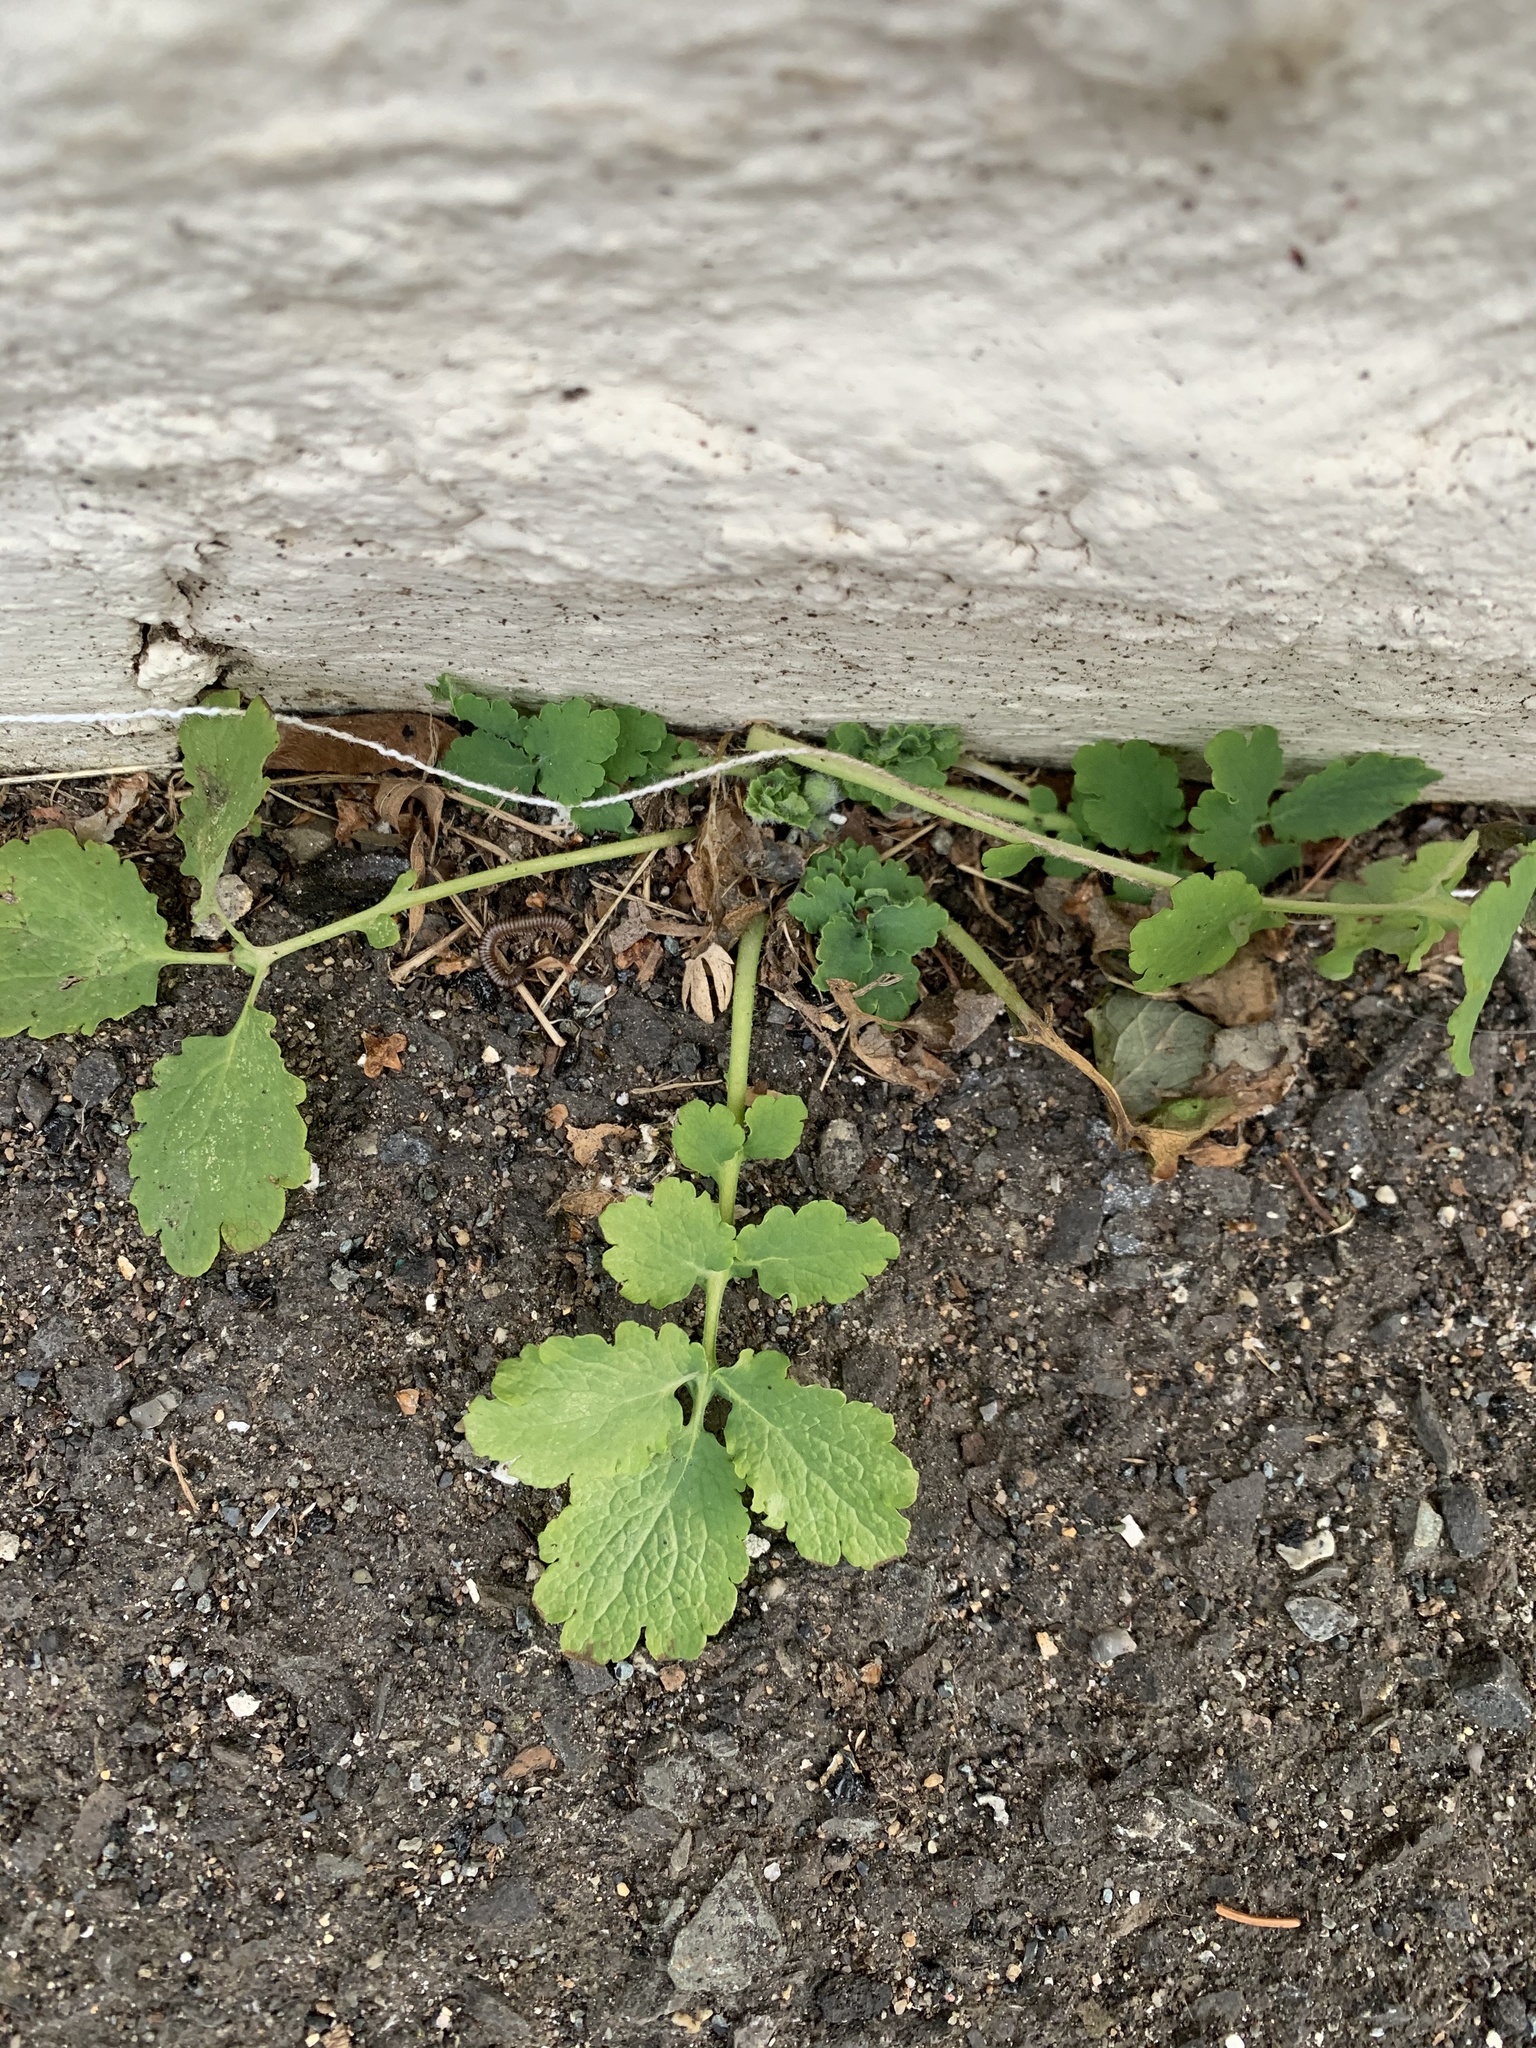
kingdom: Plantae
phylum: Tracheophyta
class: Magnoliopsida
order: Ranunculales
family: Papaveraceae
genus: Chelidonium
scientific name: Chelidonium majus
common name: Greater celandine
